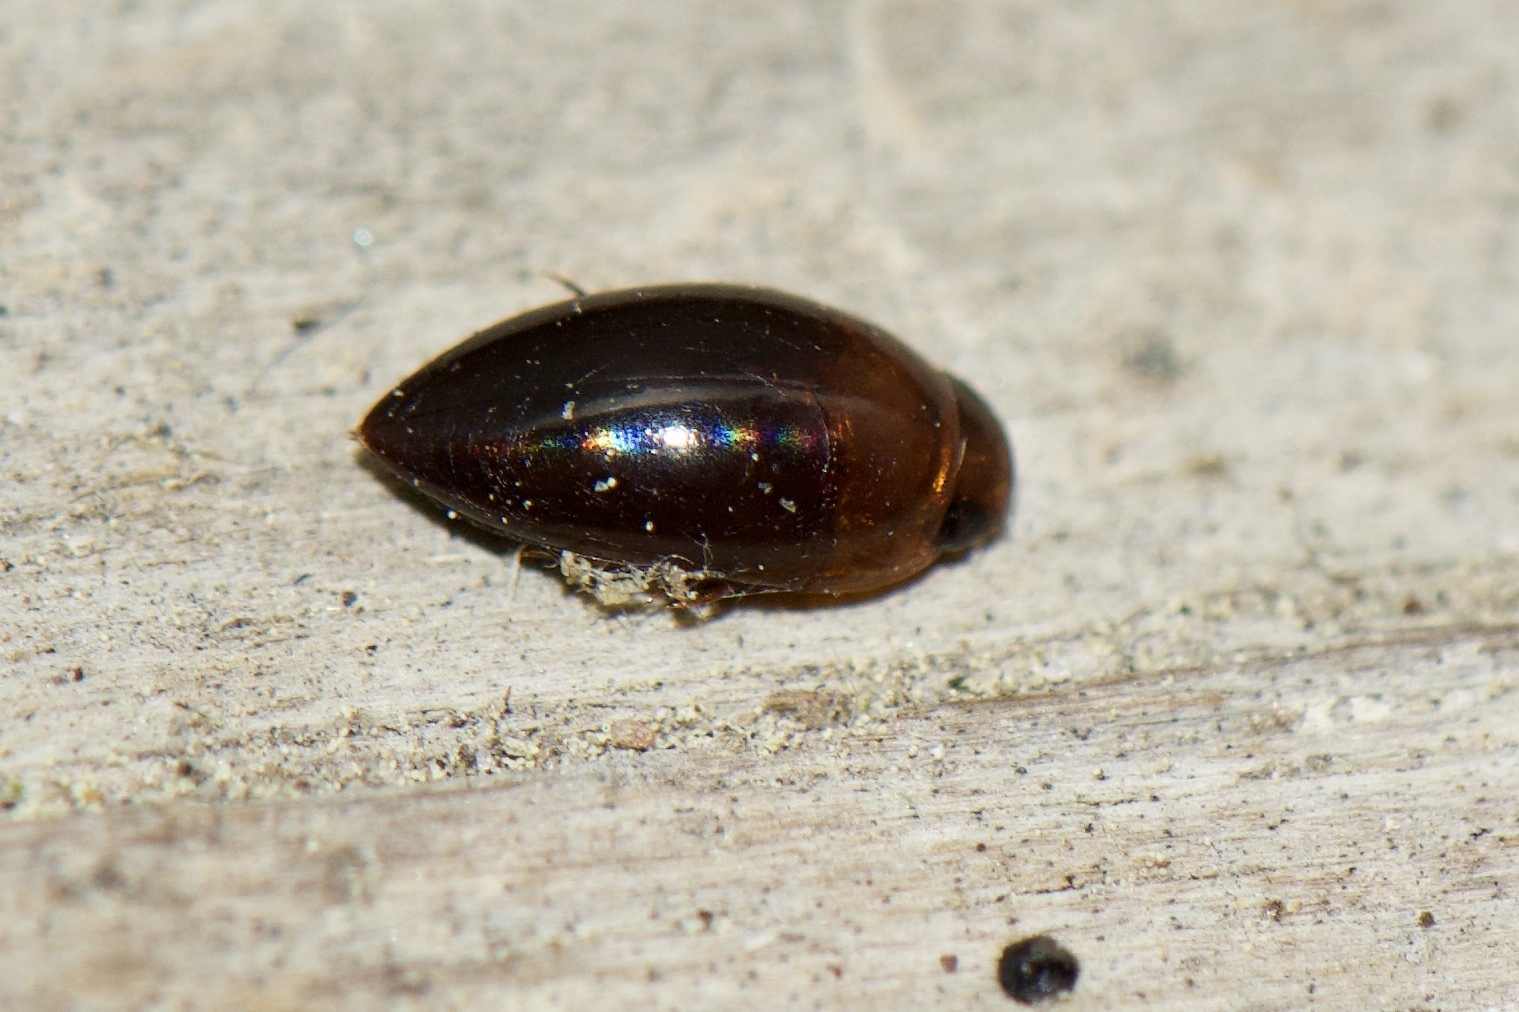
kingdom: Animalia
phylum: Arthropoda
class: Insecta
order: Coleoptera
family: Noteridae
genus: Hydrocanthus
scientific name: Hydrocanthus
